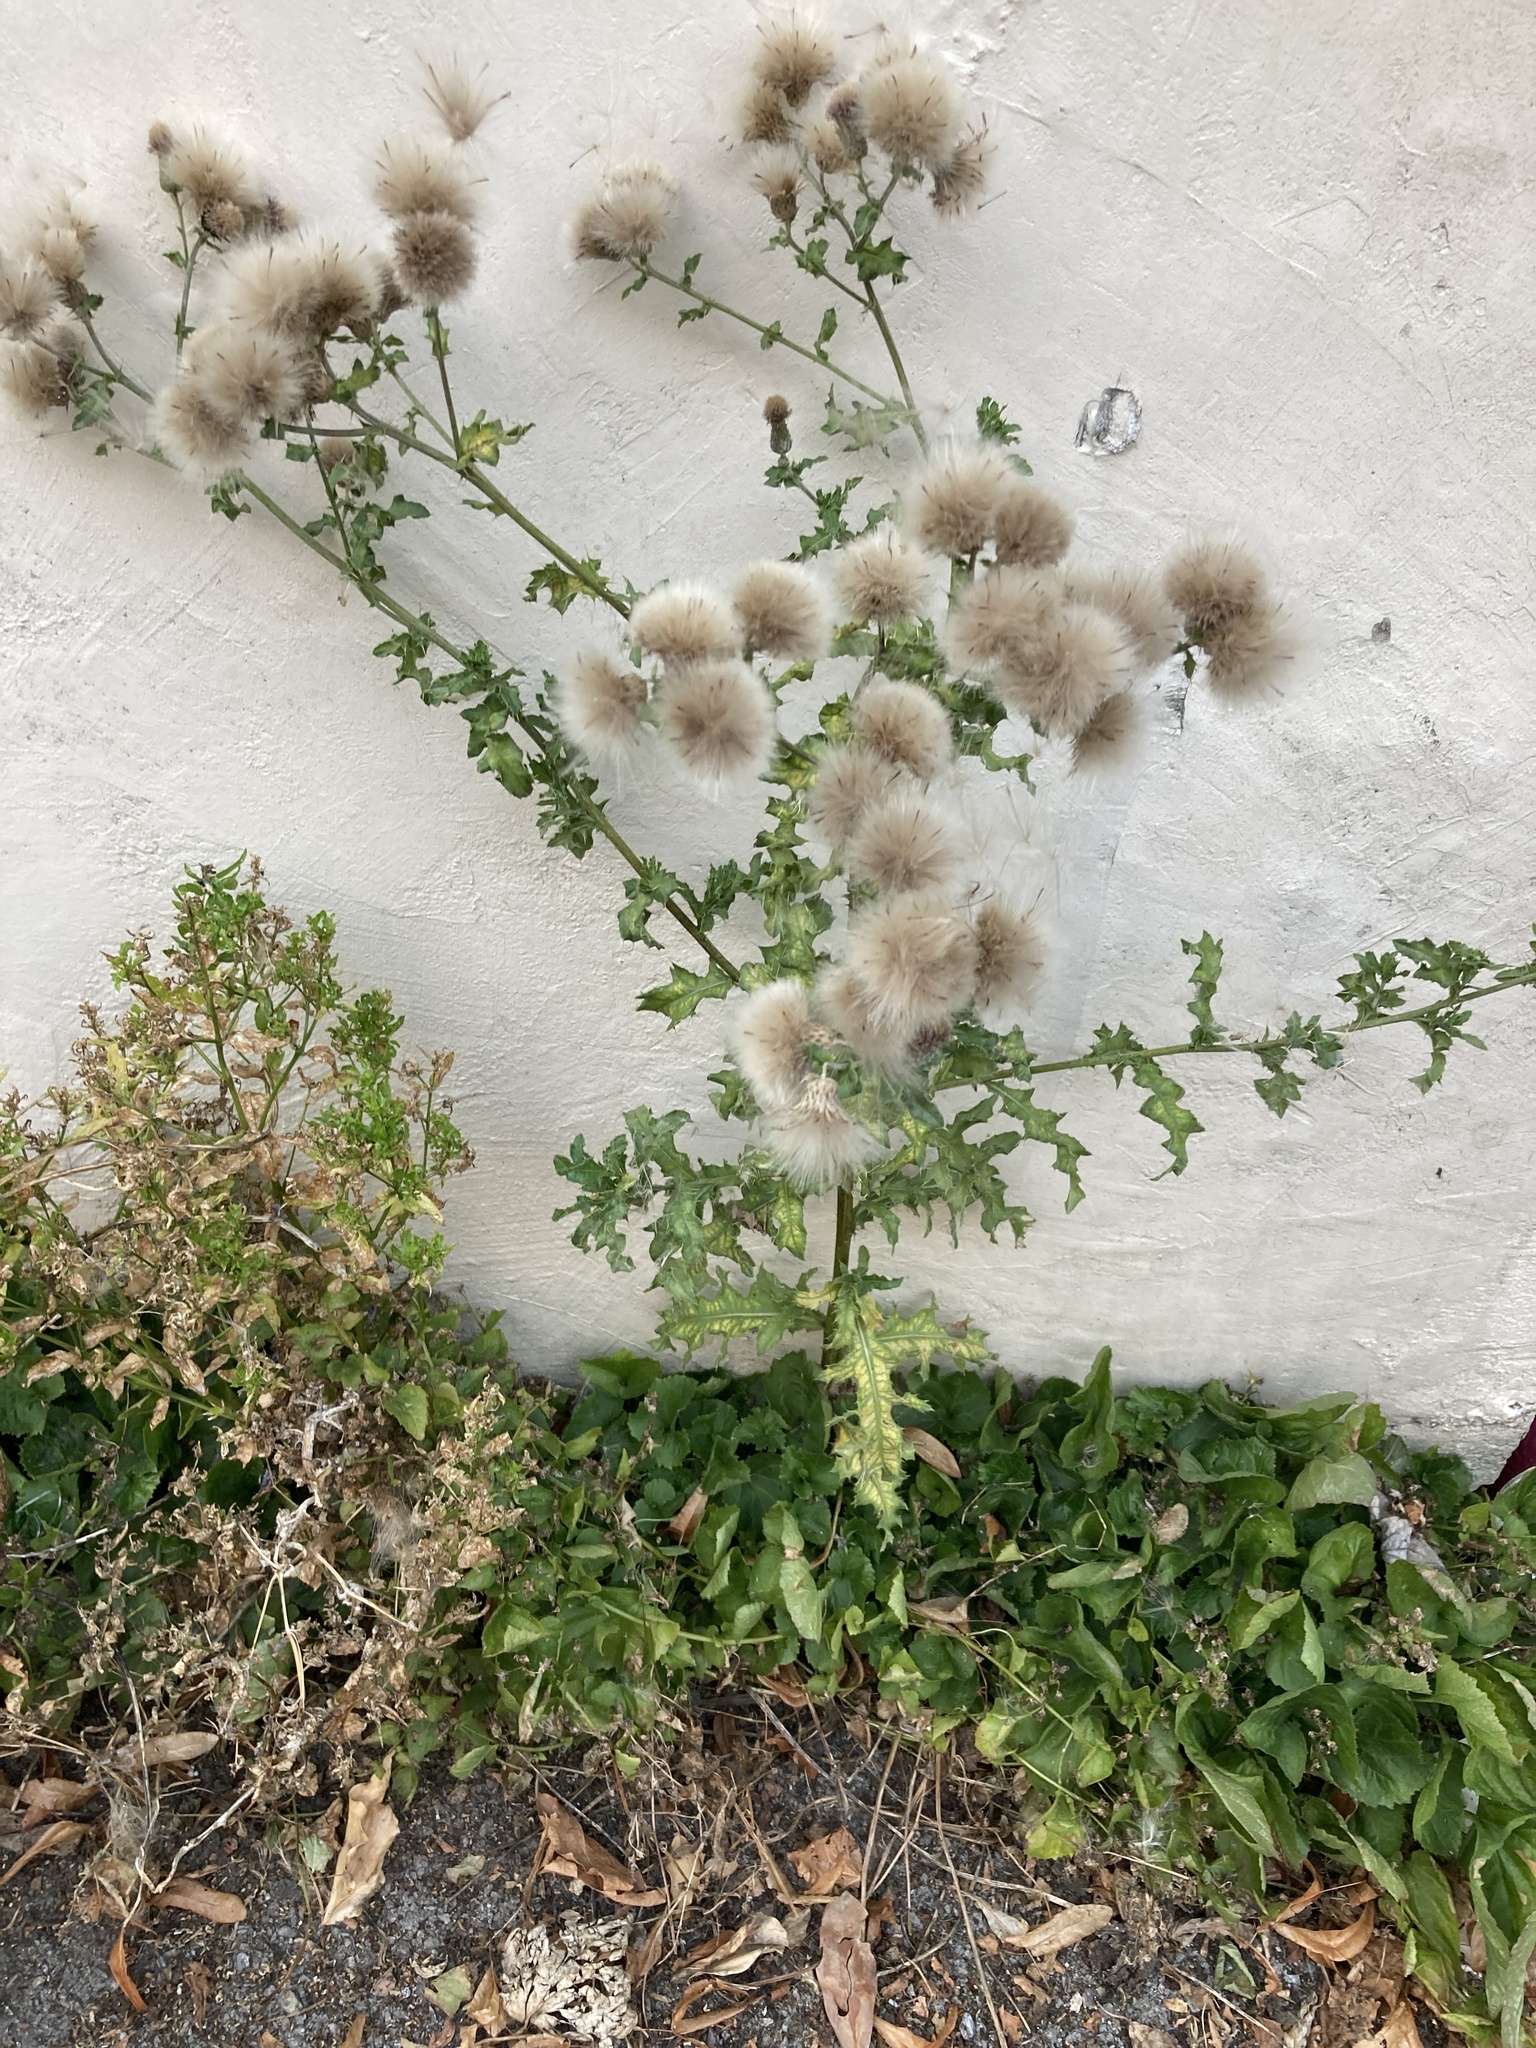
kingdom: Plantae
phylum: Tracheophyta
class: Magnoliopsida
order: Asterales
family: Asteraceae
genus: Cirsium
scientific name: Cirsium arvense
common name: Creeping thistle
